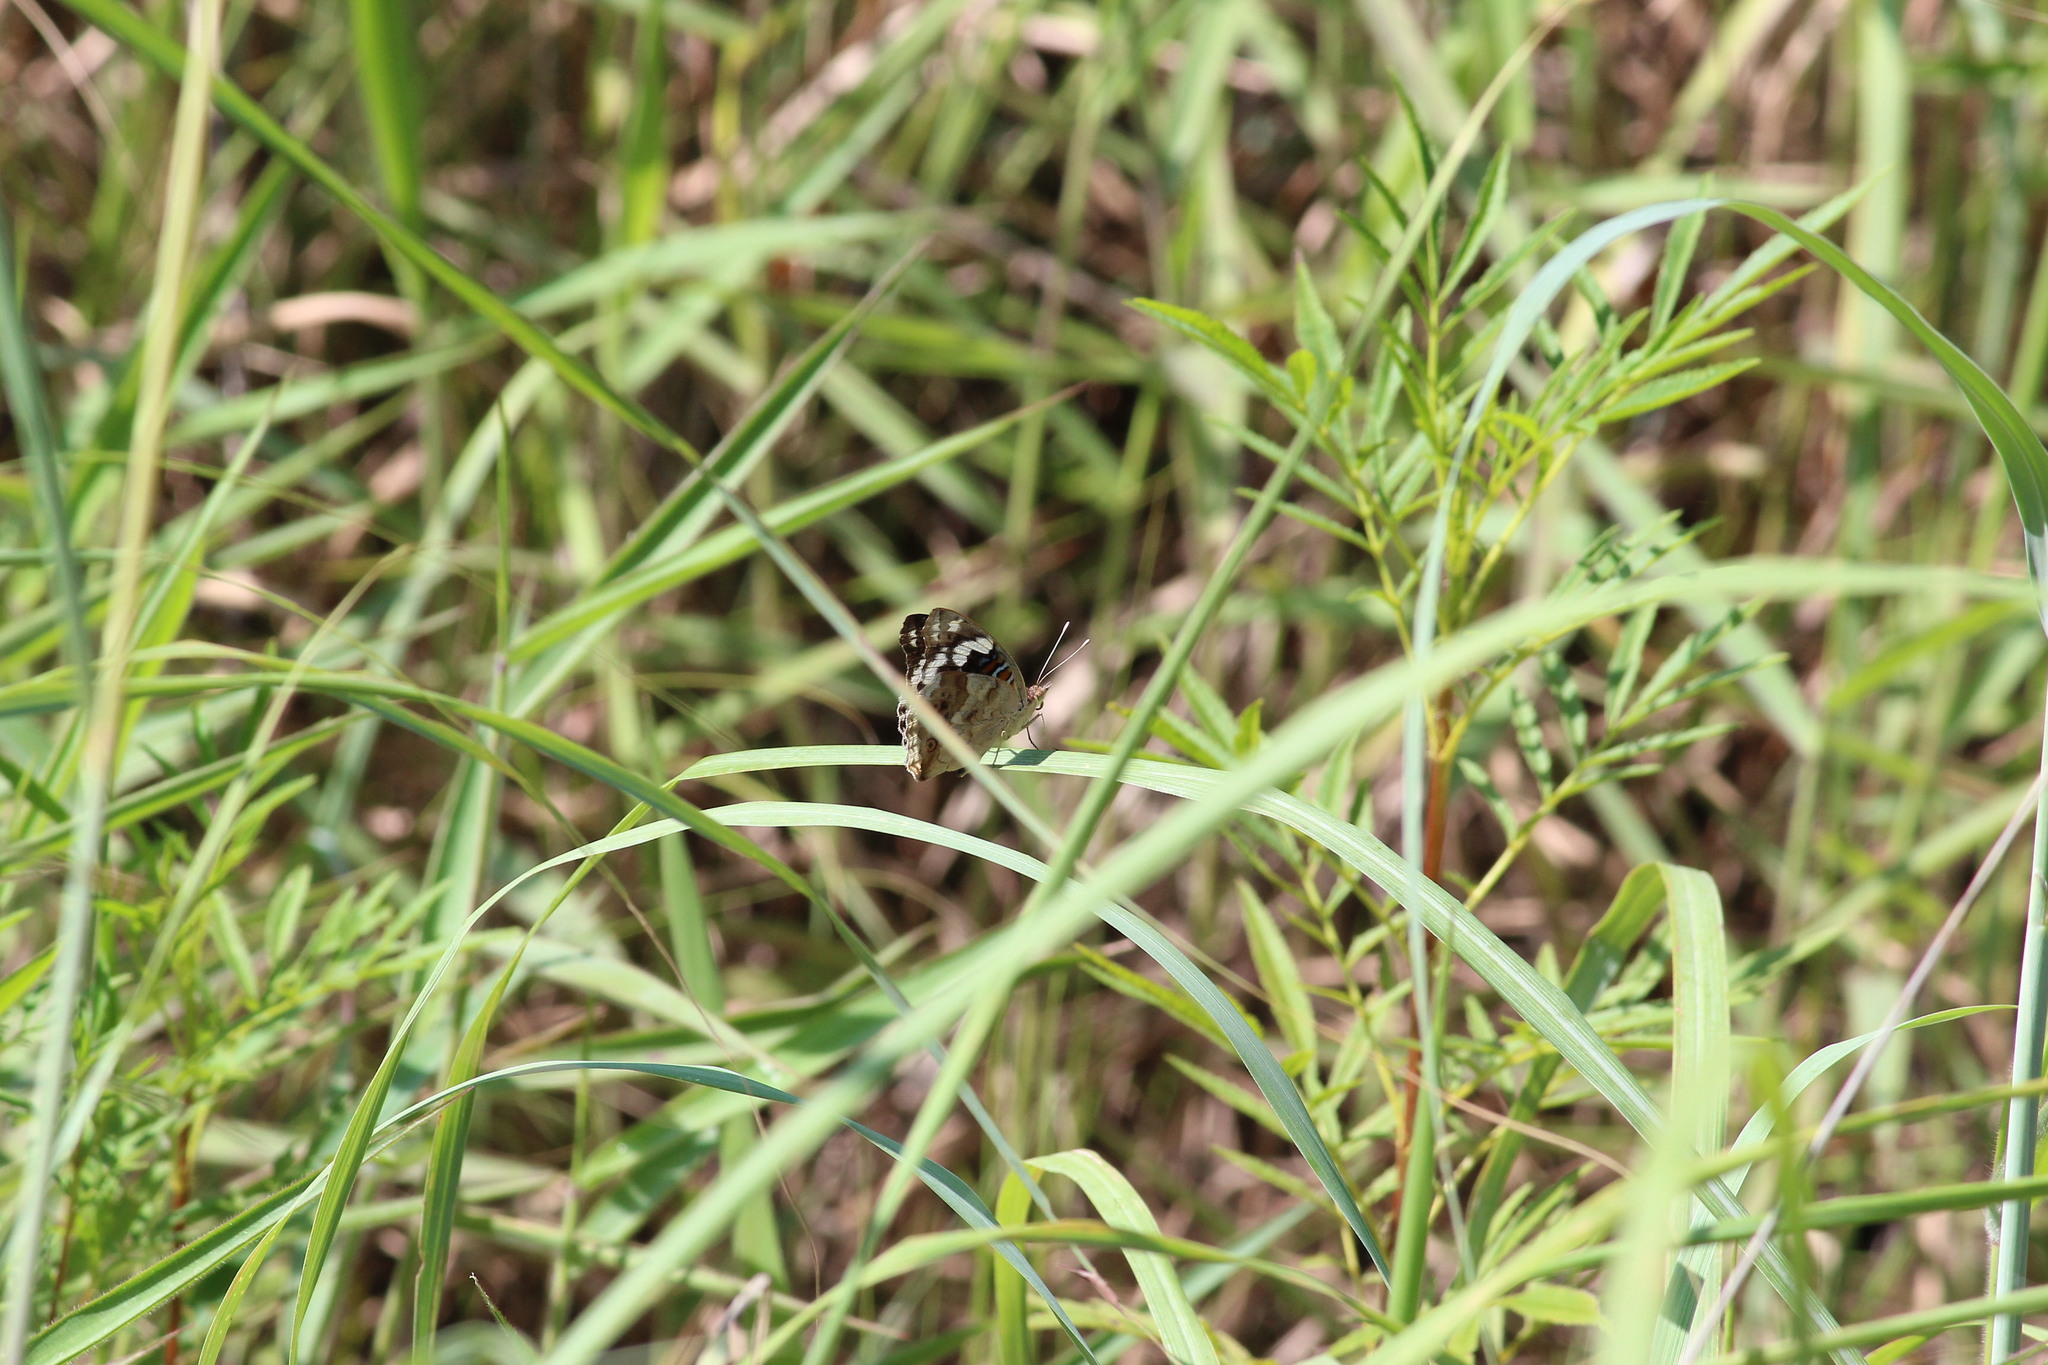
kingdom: Animalia
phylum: Arthropoda
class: Insecta
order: Lepidoptera
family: Nymphalidae
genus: Junonia
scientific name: Junonia oenone
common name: Dark blue pansy
